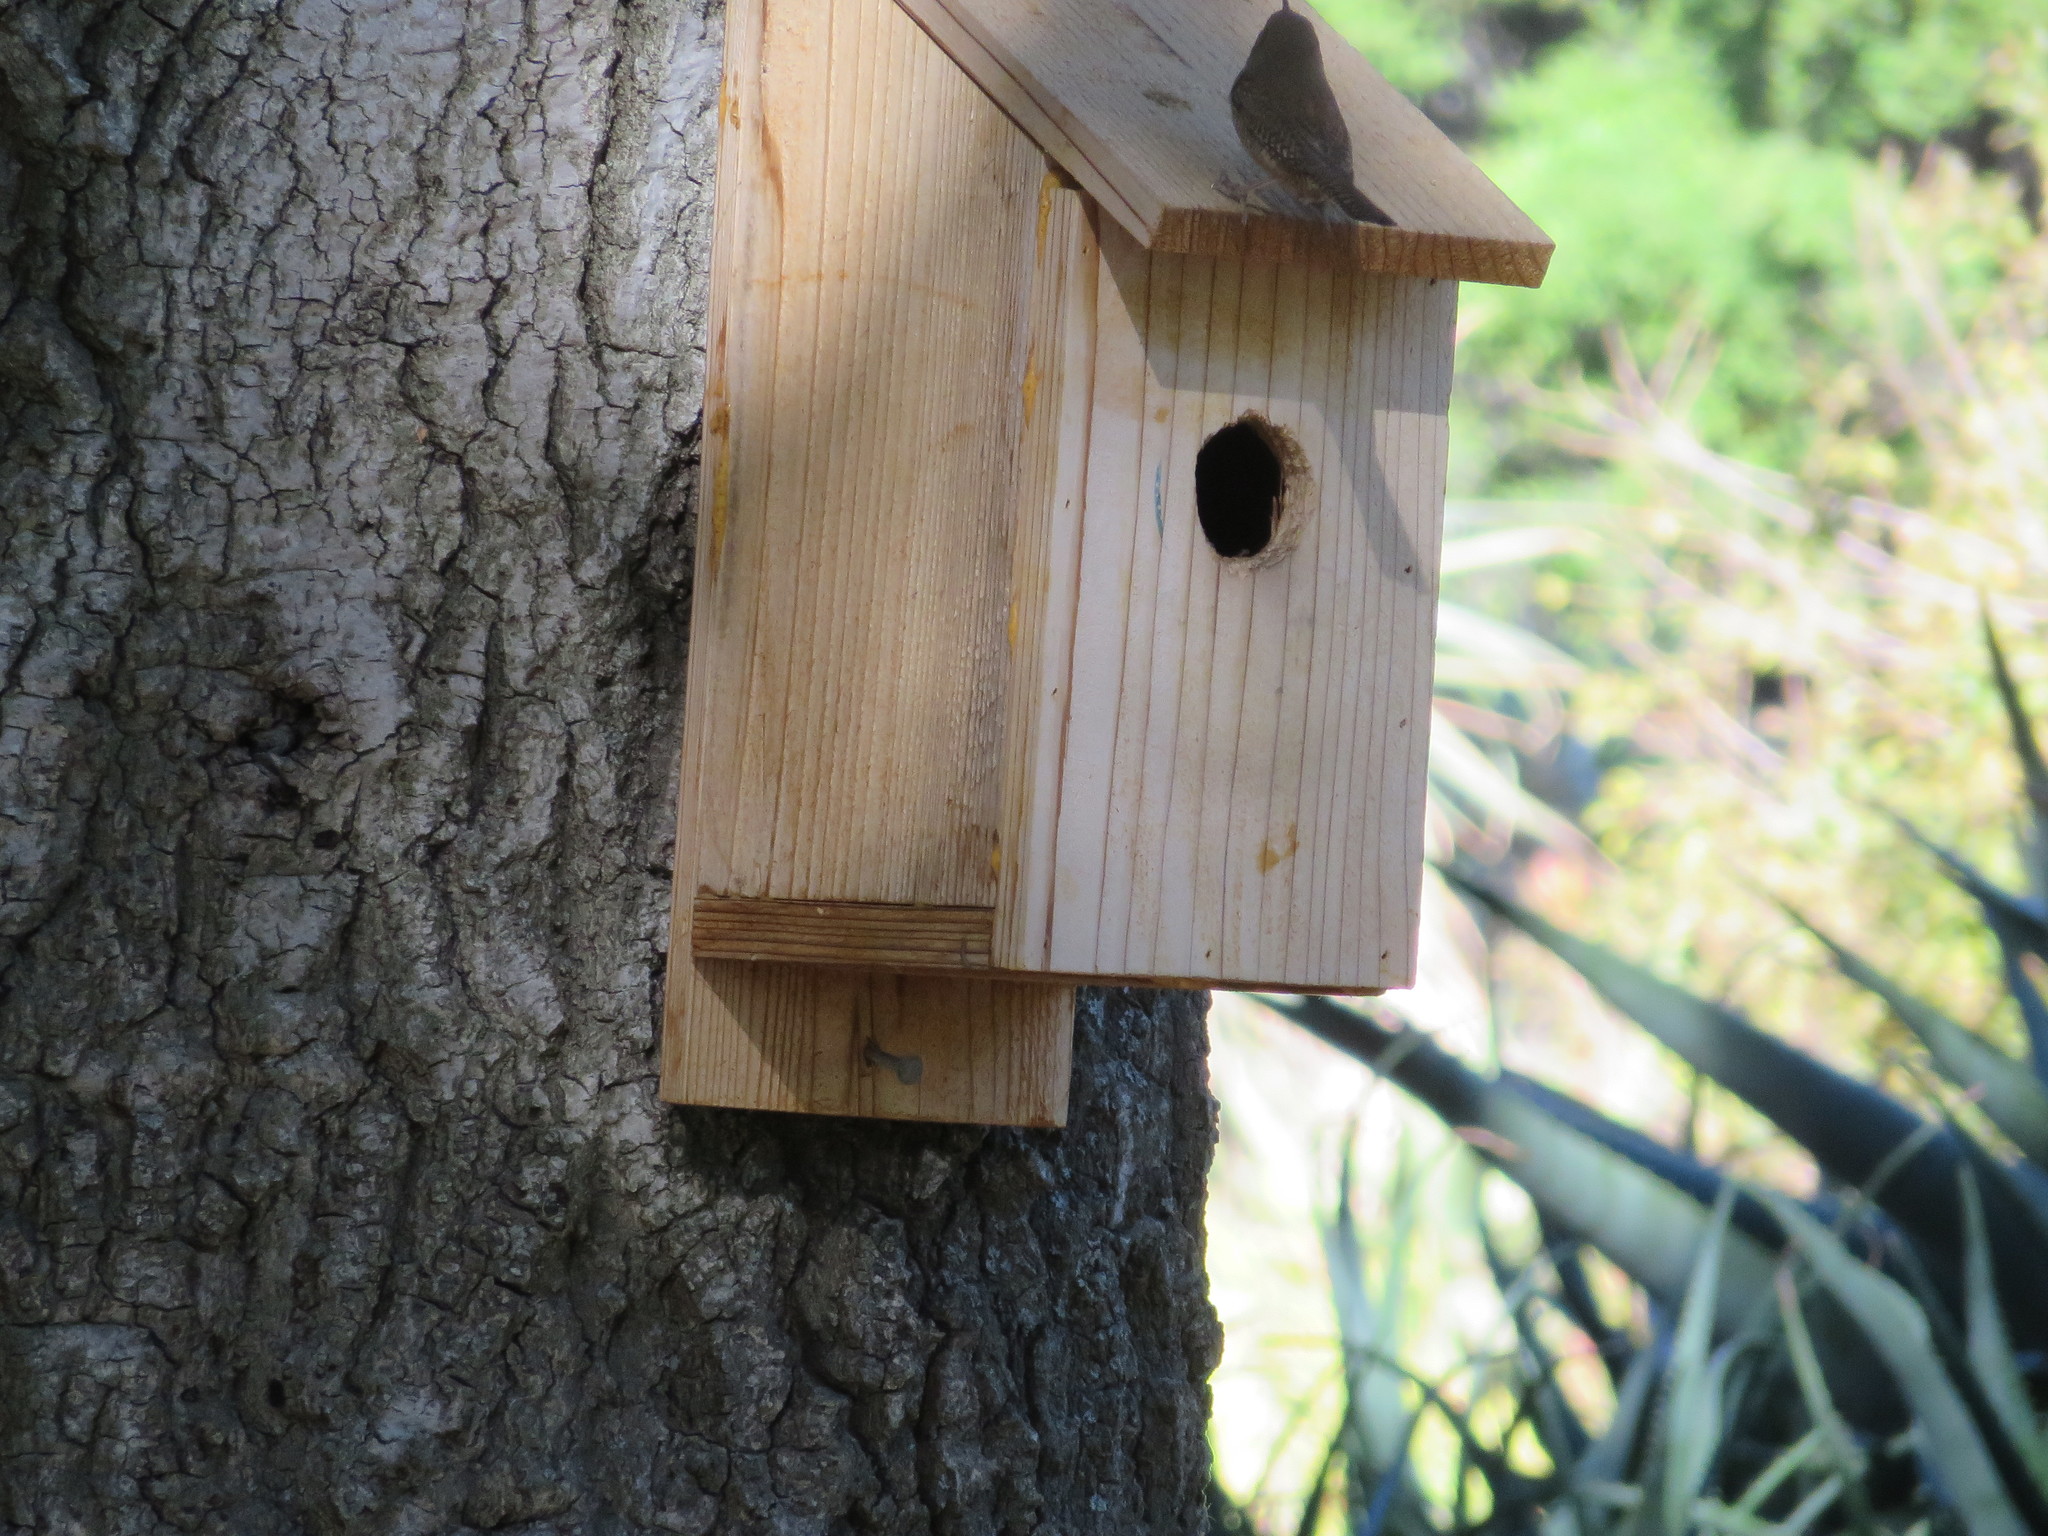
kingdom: Animalia
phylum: Chordata
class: Aves
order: Passeriformes
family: Troglodytidae
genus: Troglodytes
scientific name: Troglodytes aedon
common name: House wren
